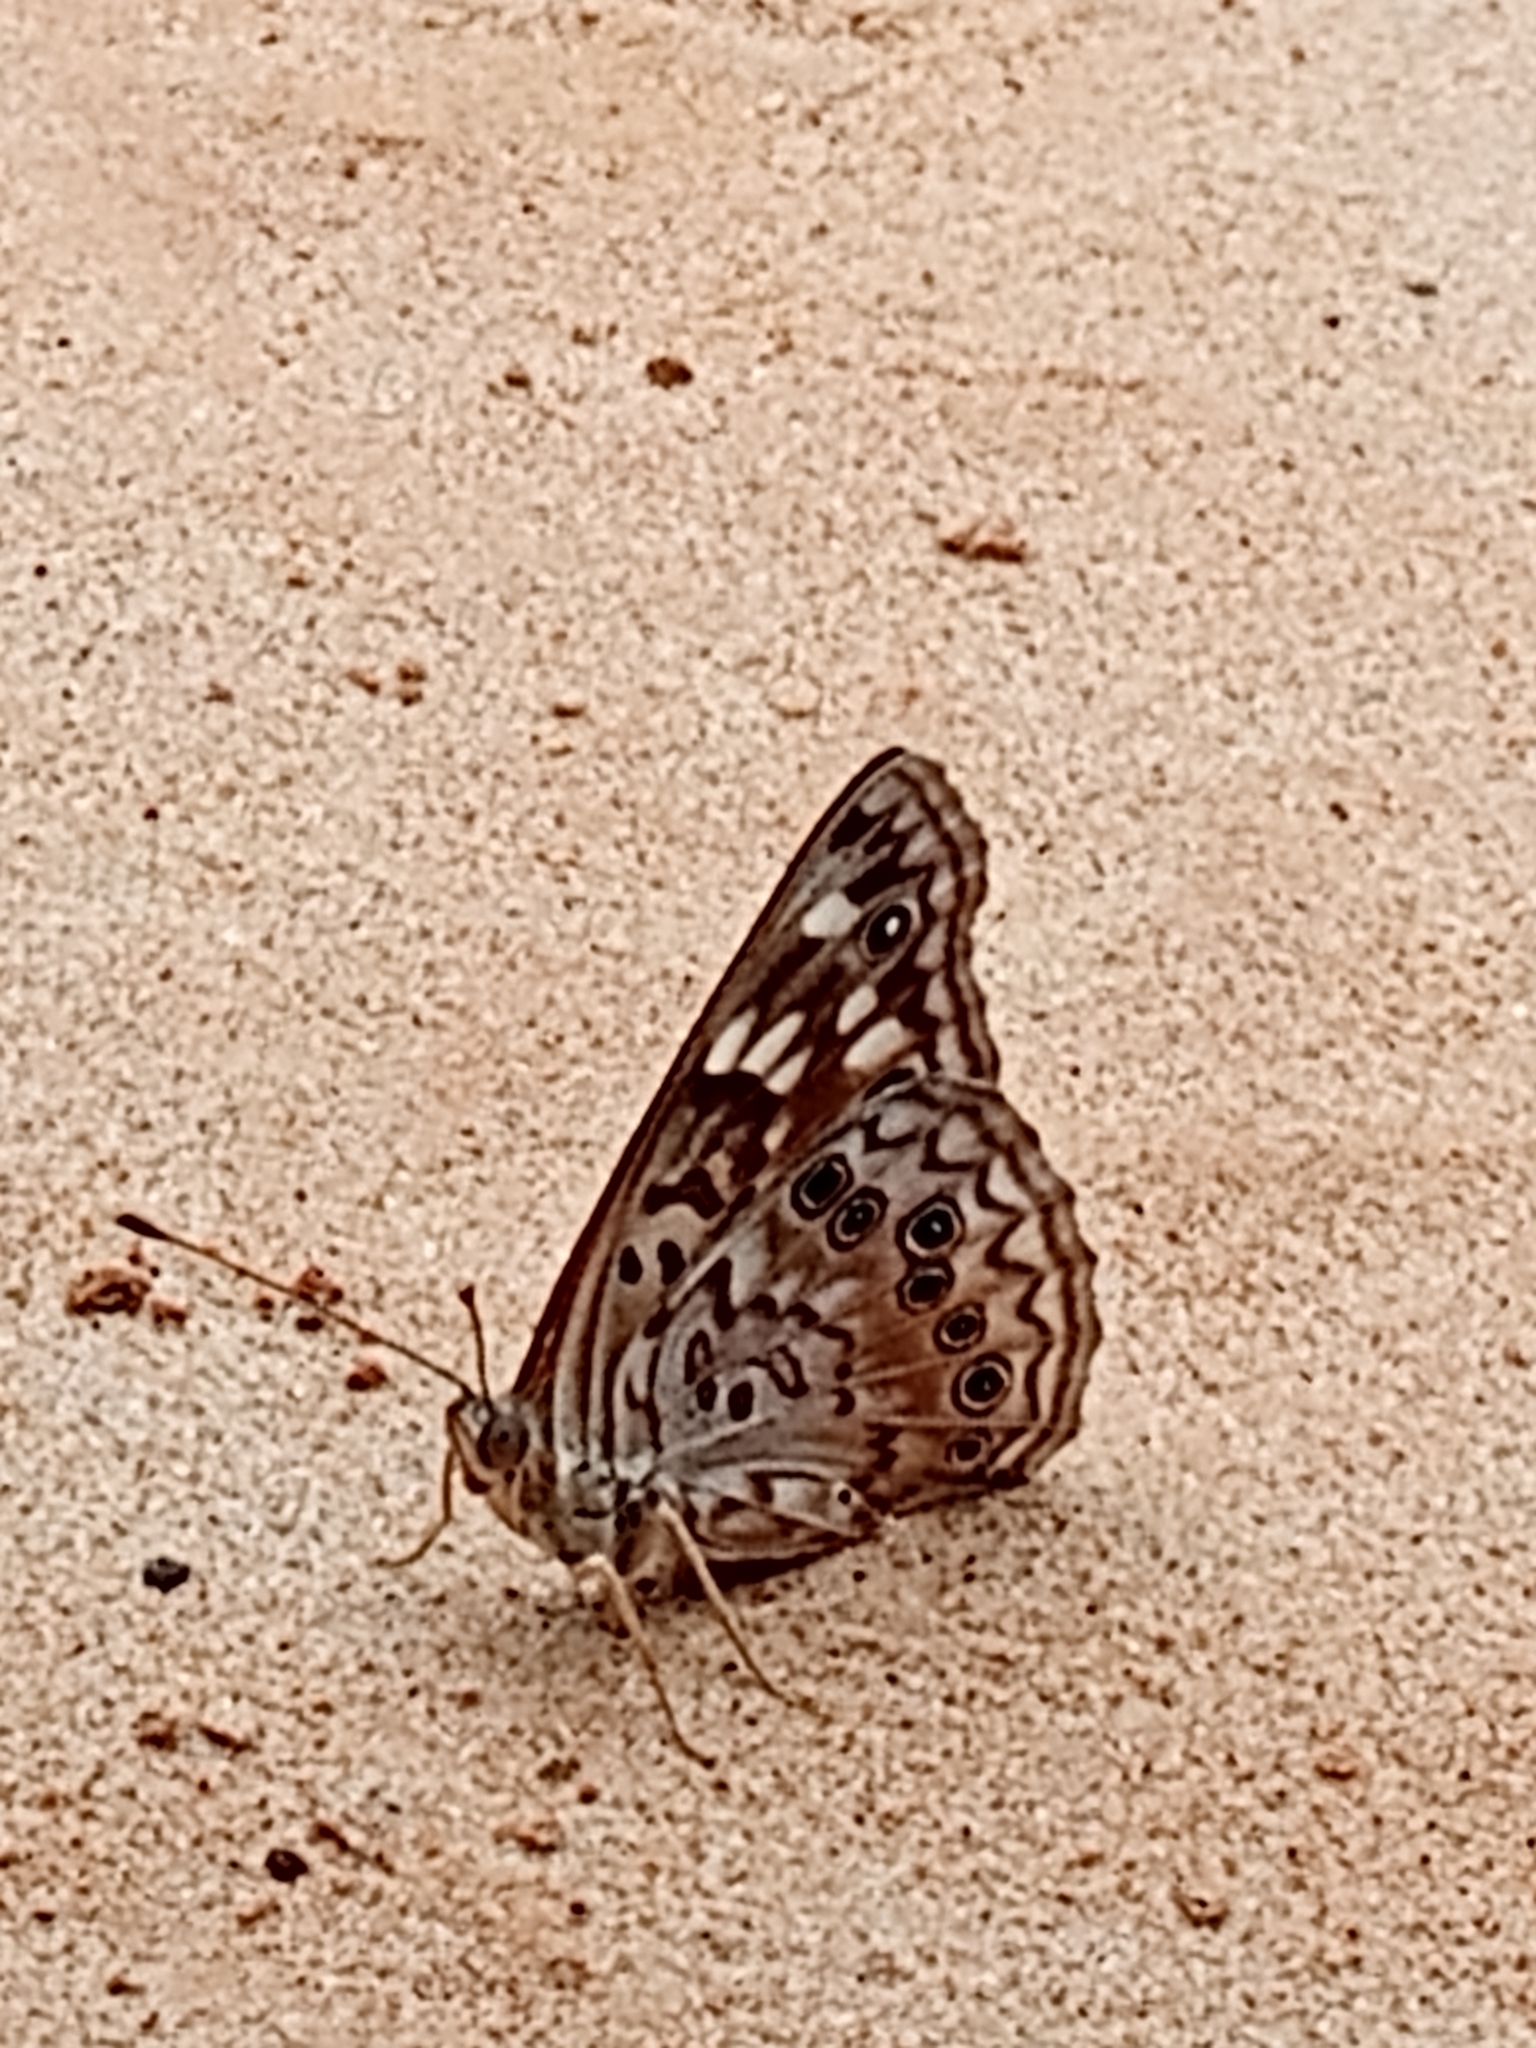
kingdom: Animalia
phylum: Arthropoda
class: Insecta
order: Lepidoptera
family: Nymphalidae
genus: Asterocampa
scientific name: Asterocampa celtis
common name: Hackberry emperor
